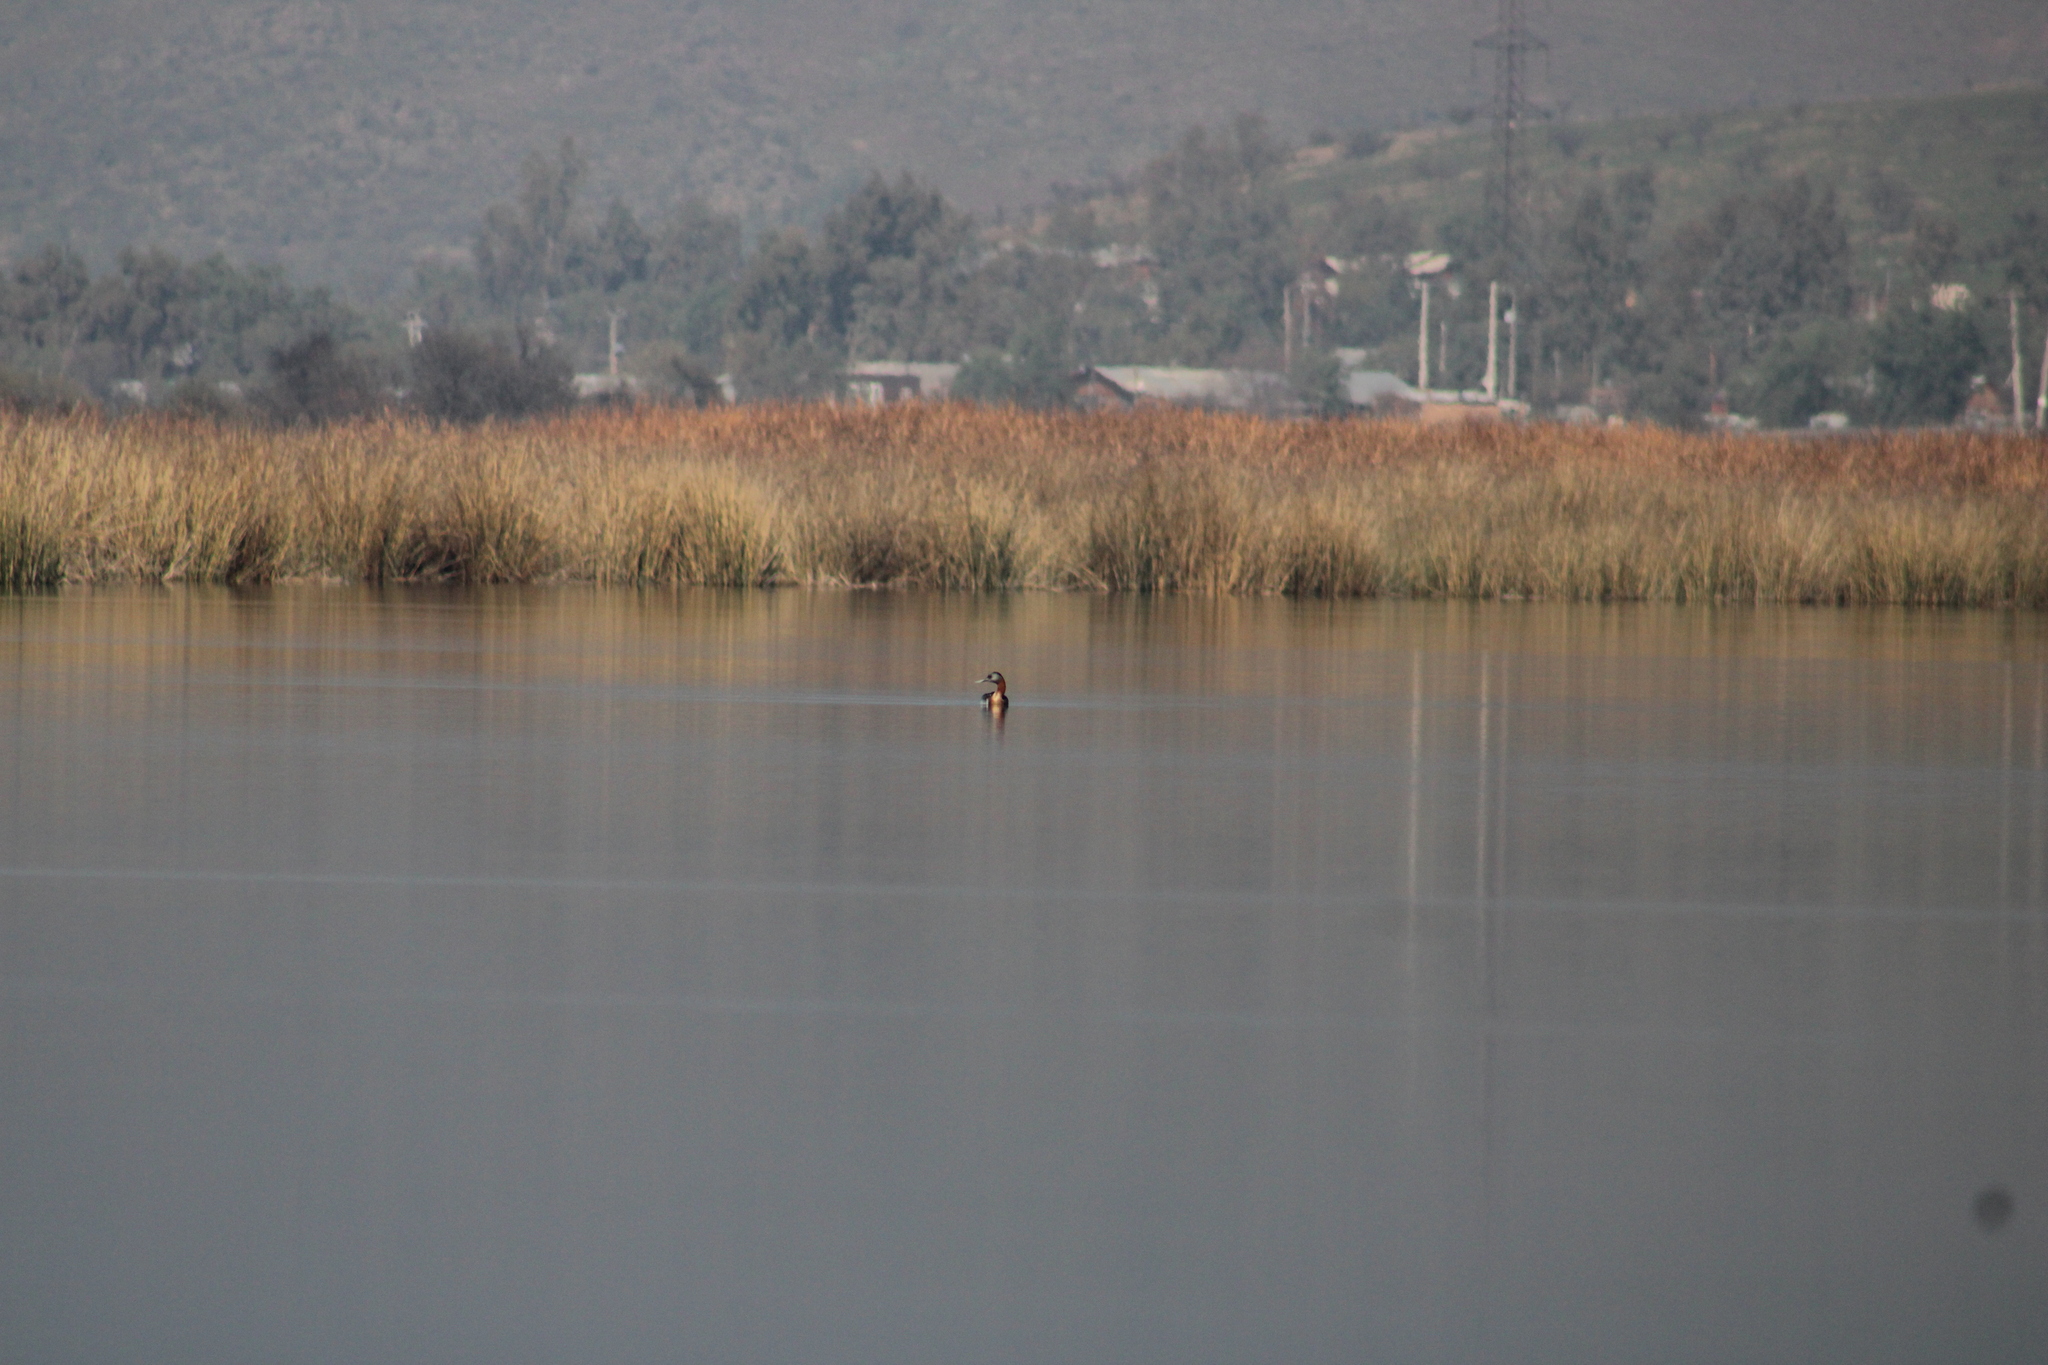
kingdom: Animalia
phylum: Chordata
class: Aves
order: Podicipediformes
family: Podicipedidae
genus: Podiceps
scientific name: Podiceps major
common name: Great grebe
